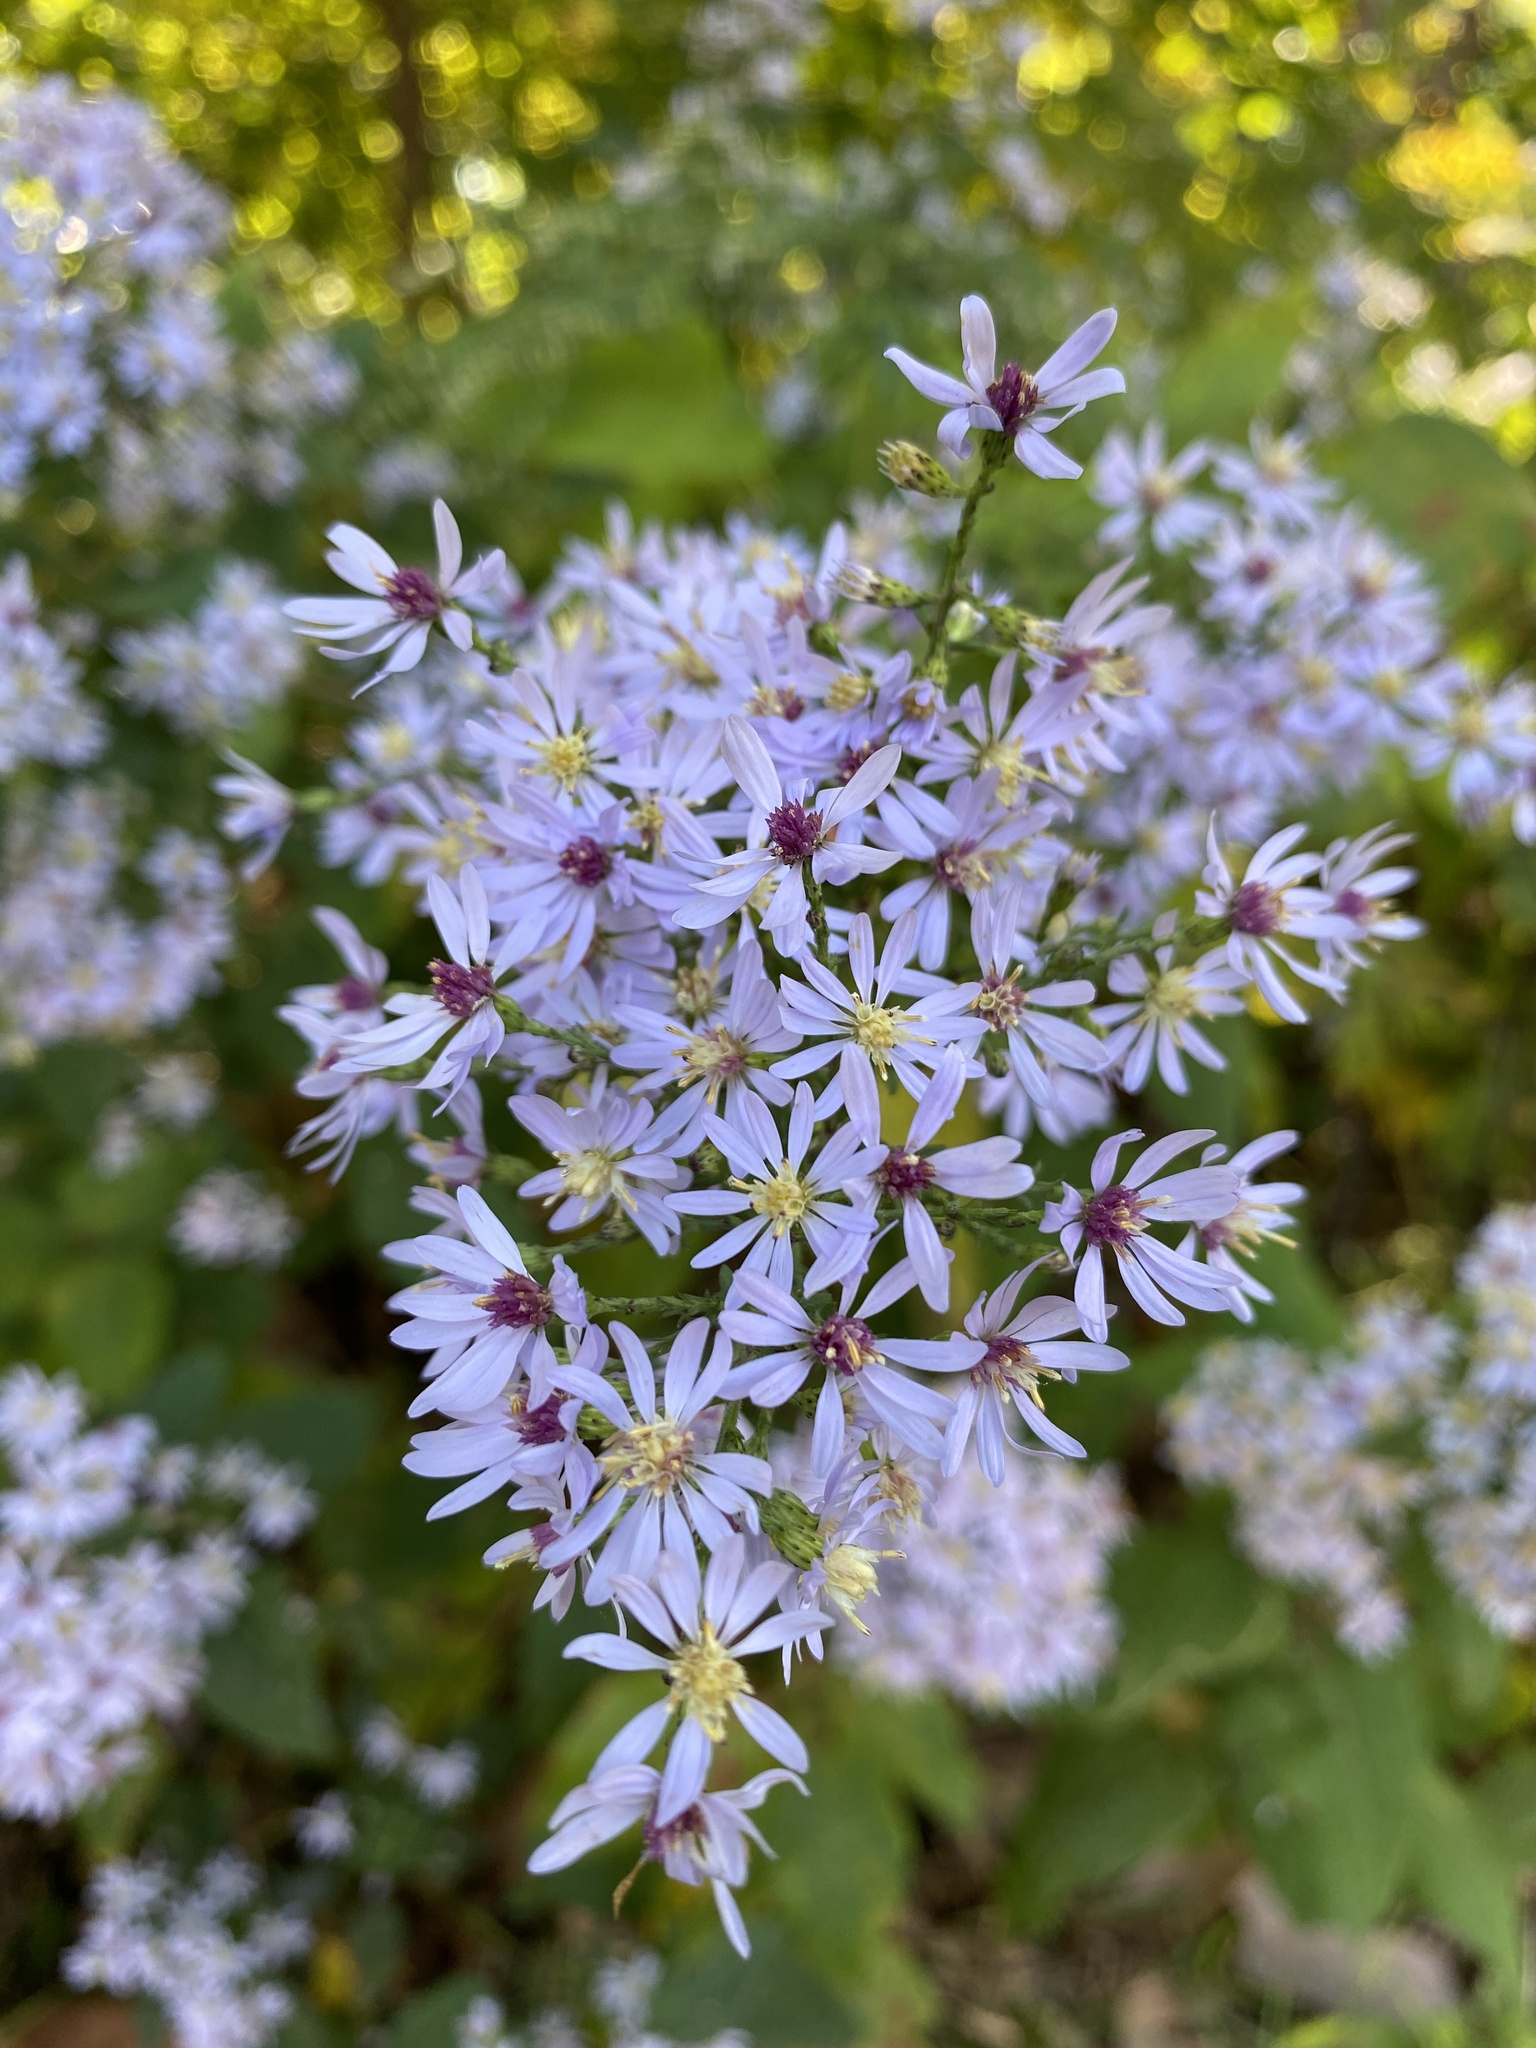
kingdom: Plantae
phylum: Tracheophyta
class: Magnoliopsida
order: Asterales
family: Asteraceae
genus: Symphyotrichum
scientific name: Symphyotrichum cordifolium
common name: Beeweed
